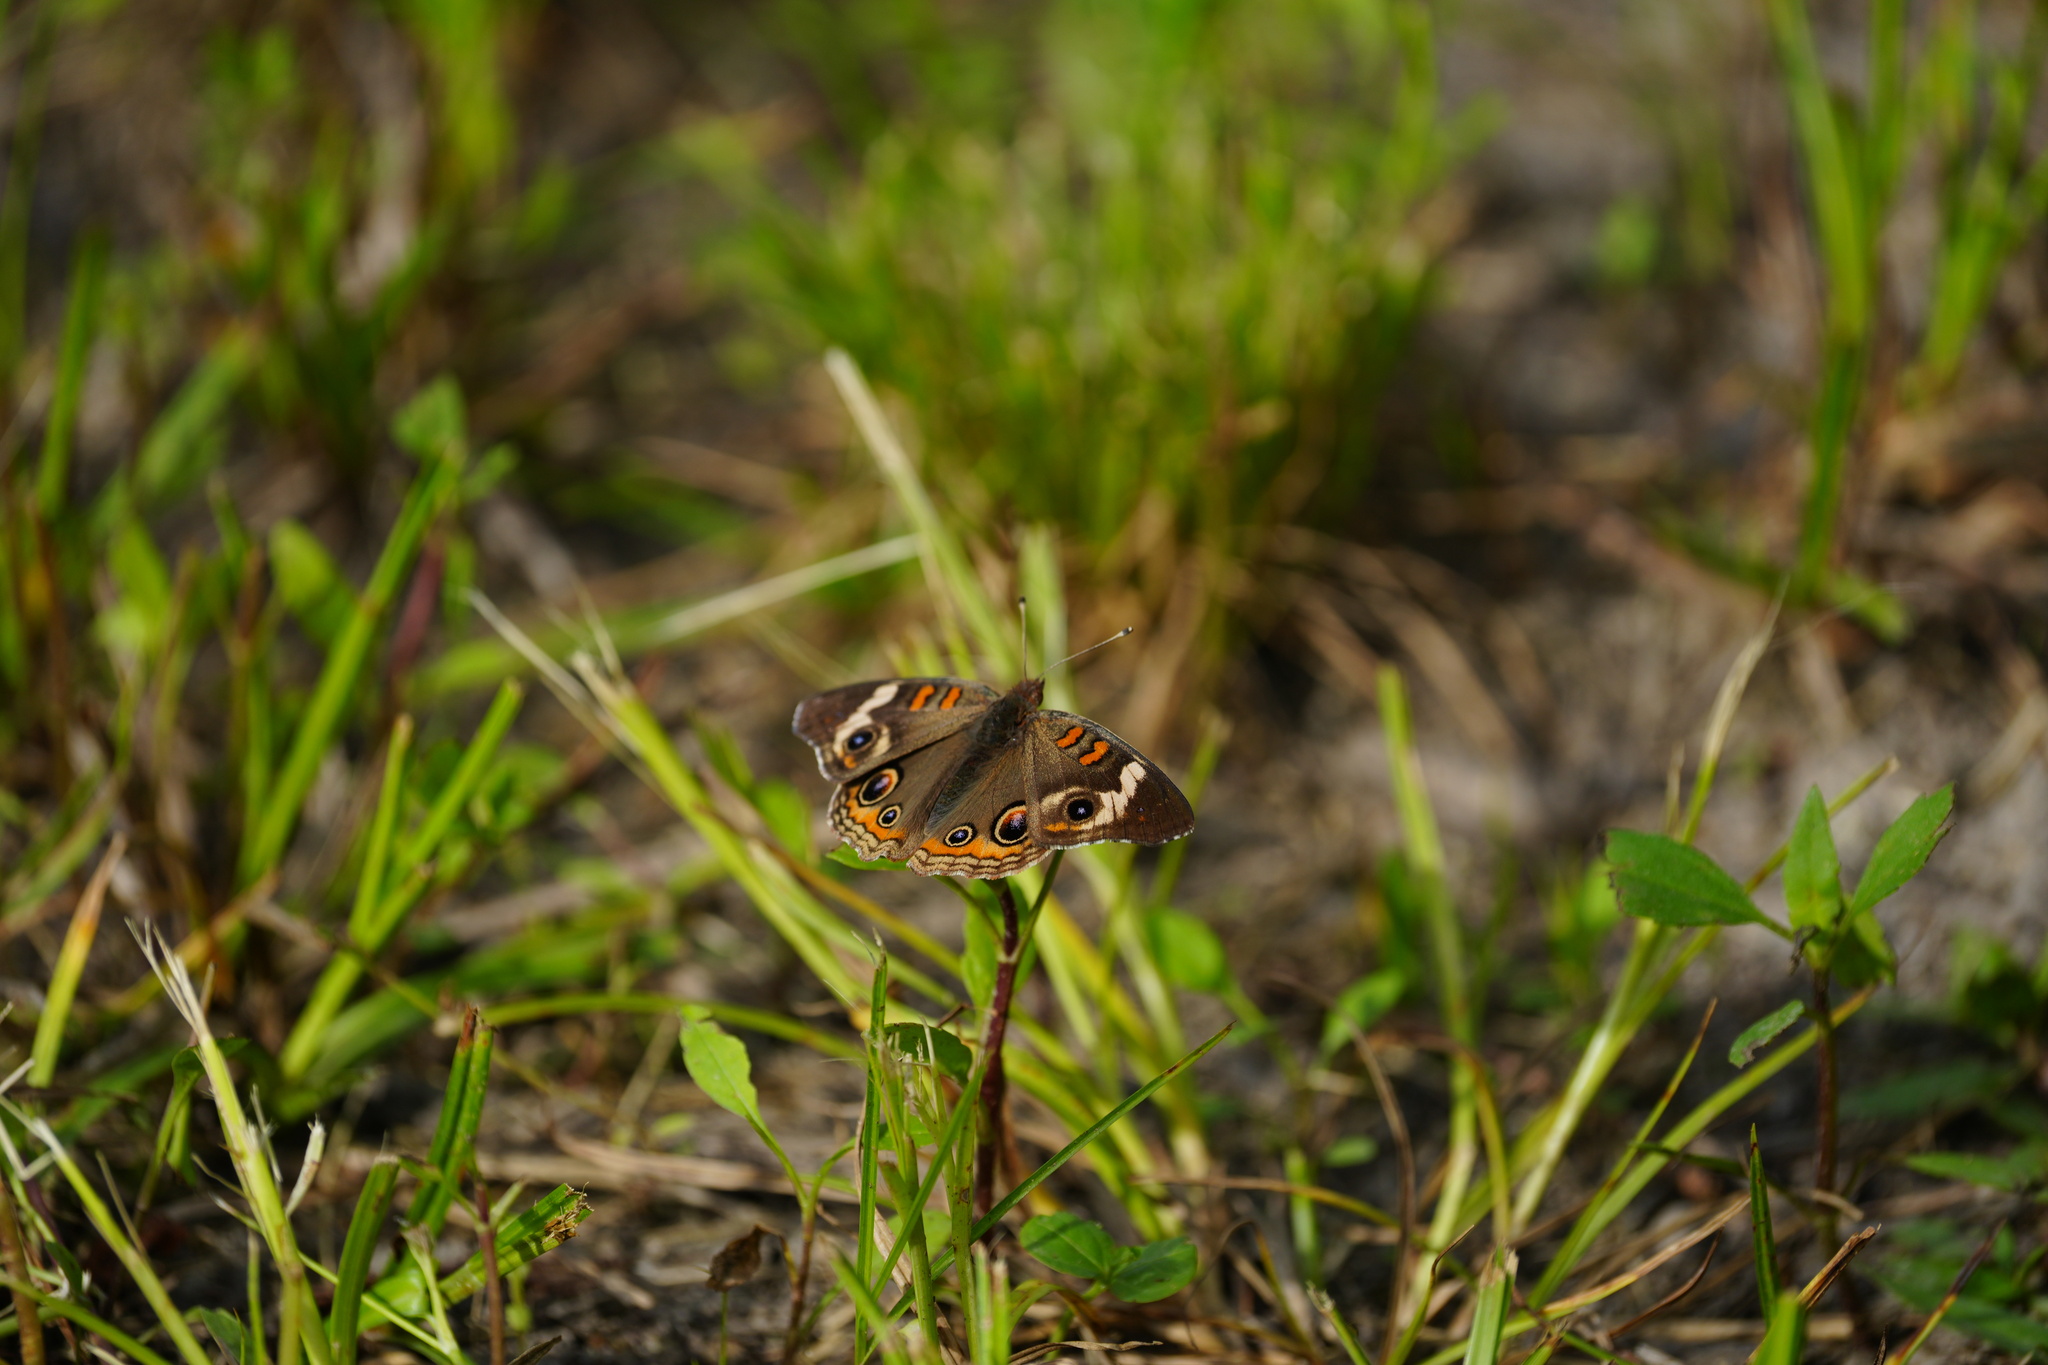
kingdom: Animalia
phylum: Arthropoda
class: Insecta
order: Lepidoptera
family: Nymphalidae
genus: Junonia
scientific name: Junonia coenia
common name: Common buckeye
